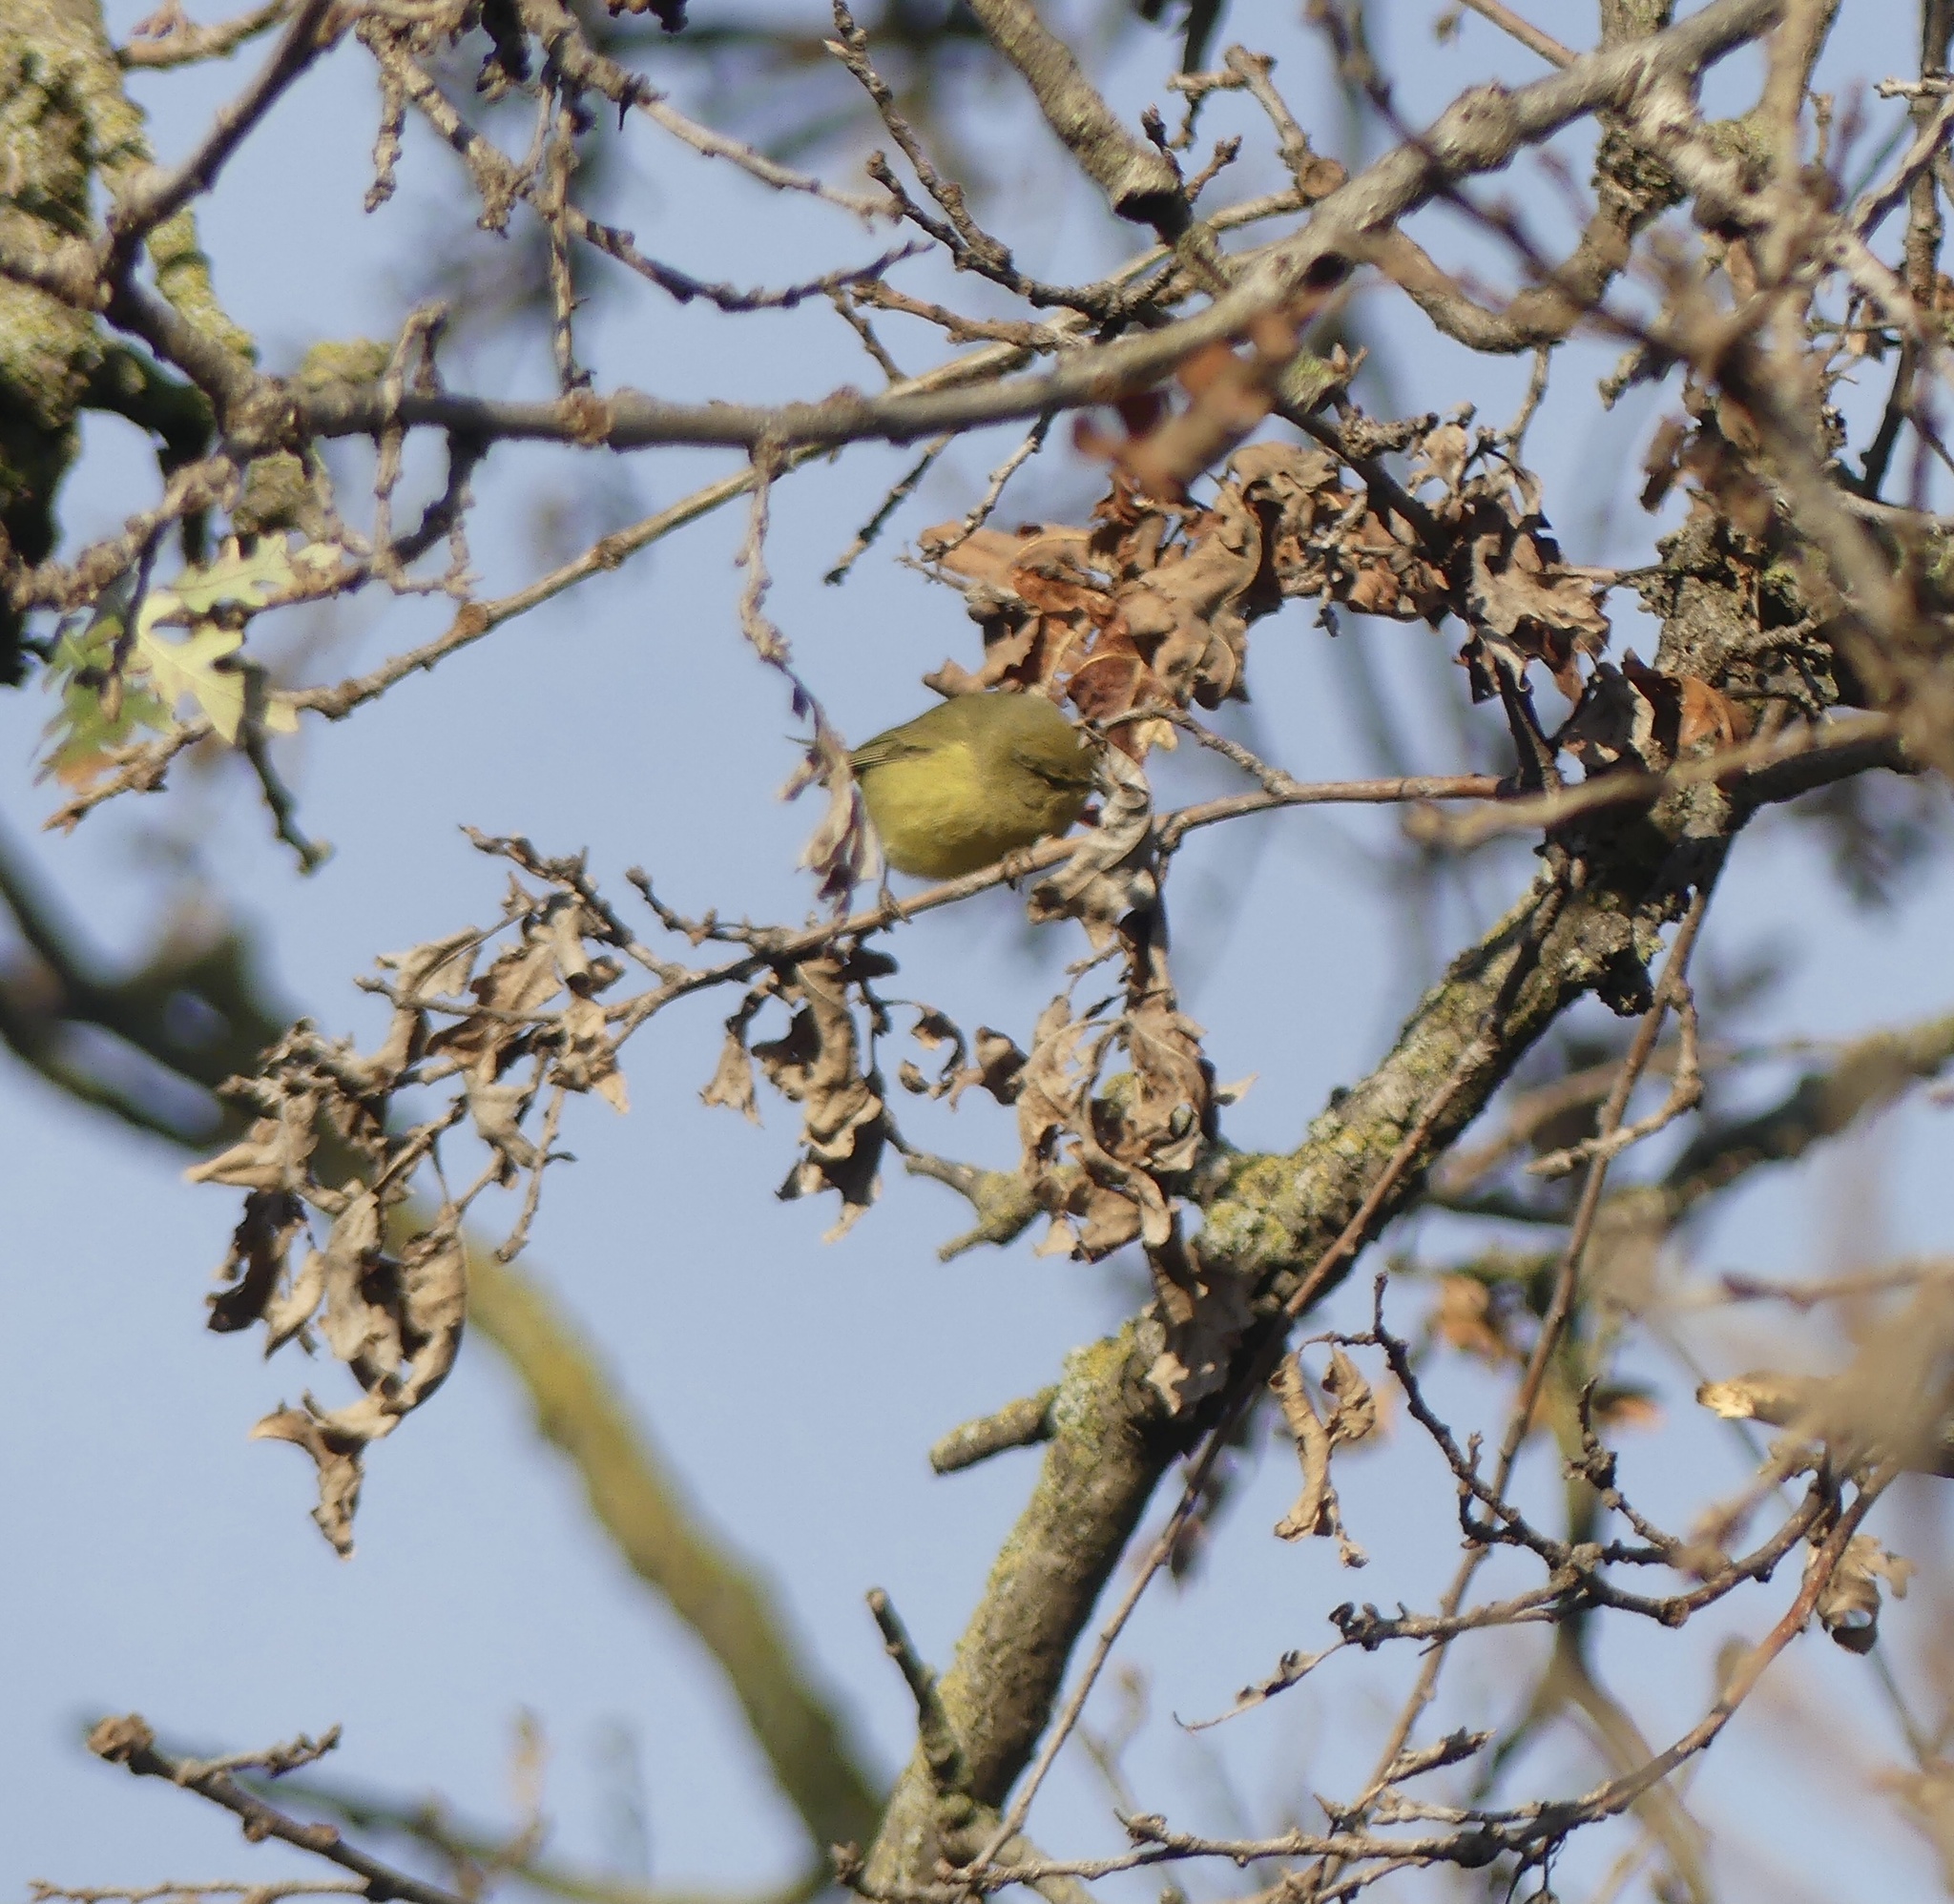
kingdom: Animalia
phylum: Chordata
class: Aves
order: Passeriformes
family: Parulidae
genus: Leiothlypis
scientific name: Leiothlypis celata
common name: Orange-crowned warbler
